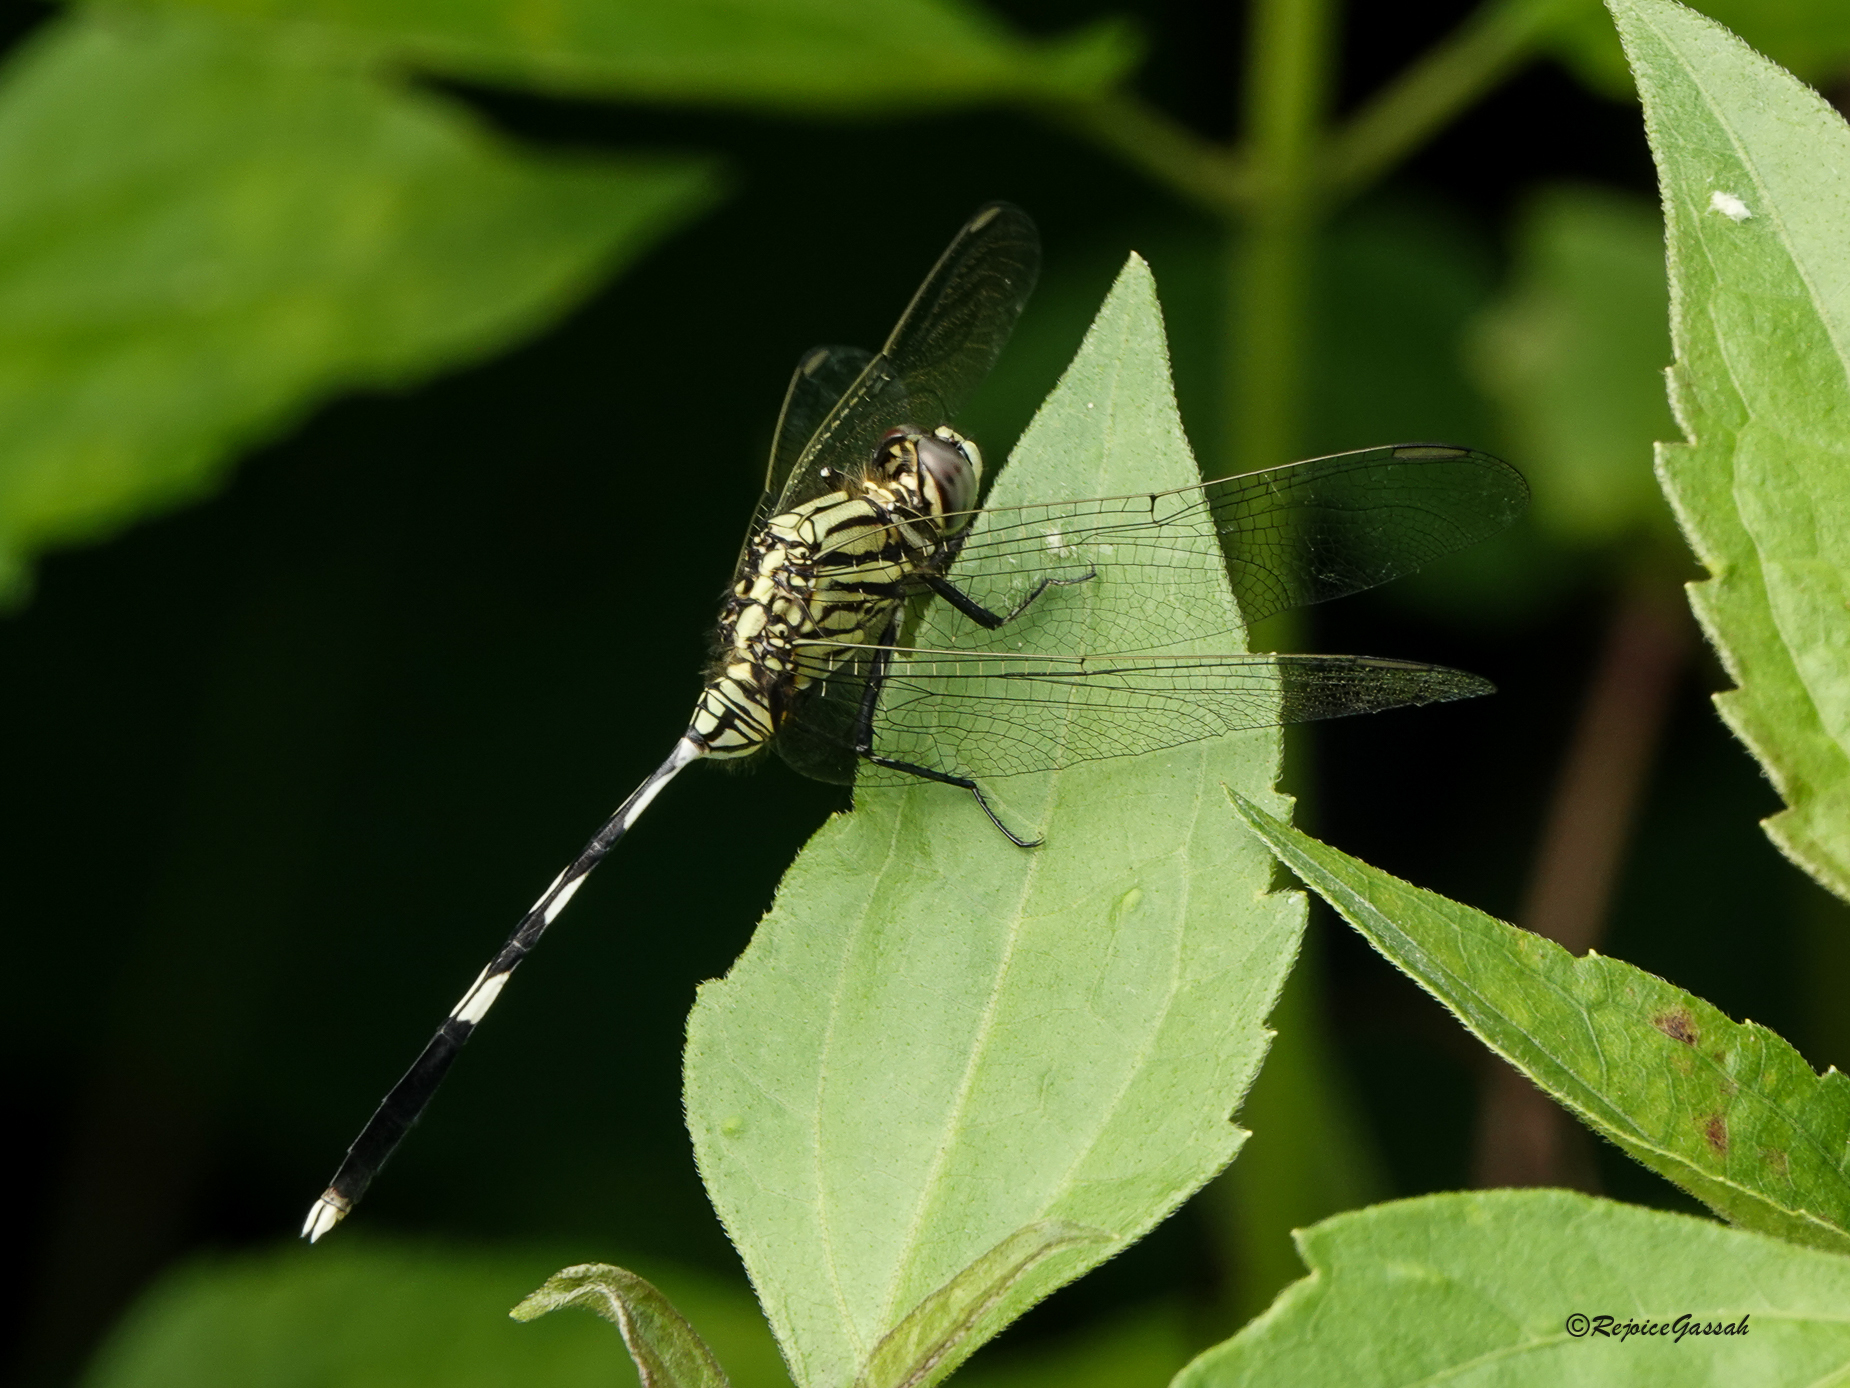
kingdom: Animalia
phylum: Arthropoda
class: Insecta
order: Odonata
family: Libellulidae
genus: Orthetrum
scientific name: Orthetrum sabina
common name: Slender skimmer
